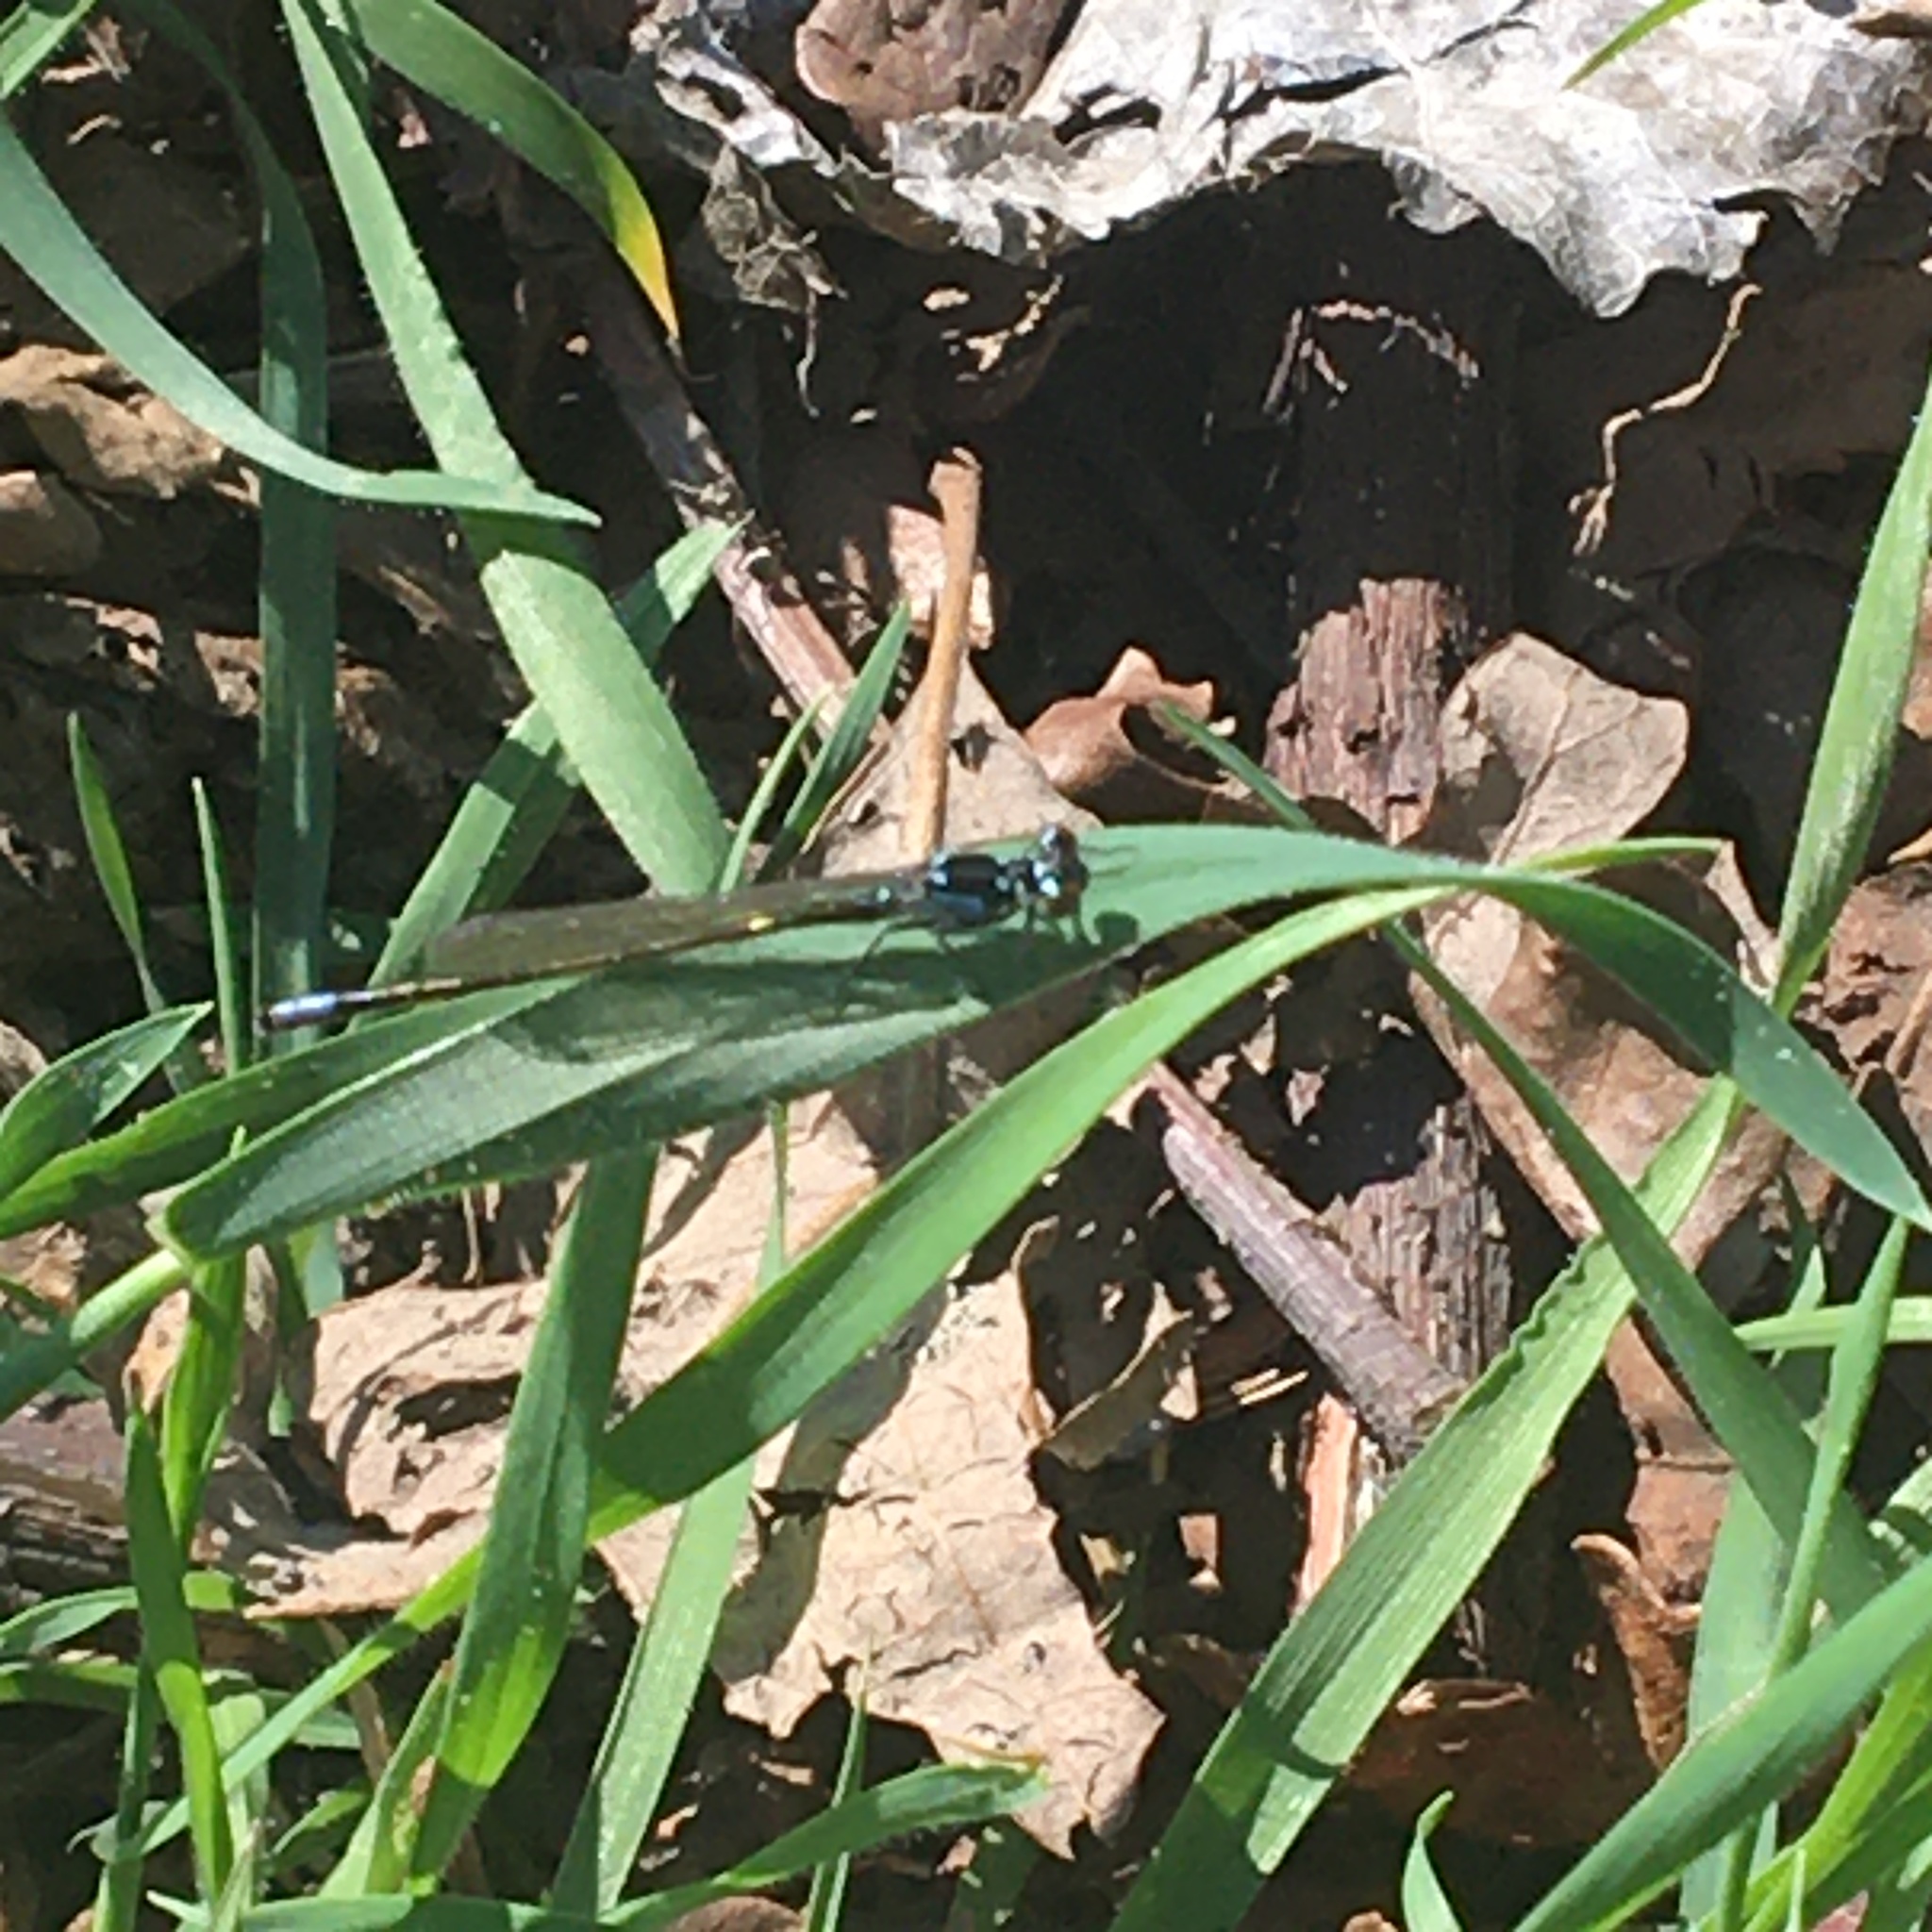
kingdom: Animalia
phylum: Arthropoda
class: Insecta
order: Odonata
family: Coenagrionidae
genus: Ischnura
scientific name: Ischnura cervula
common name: Pacific forktail
